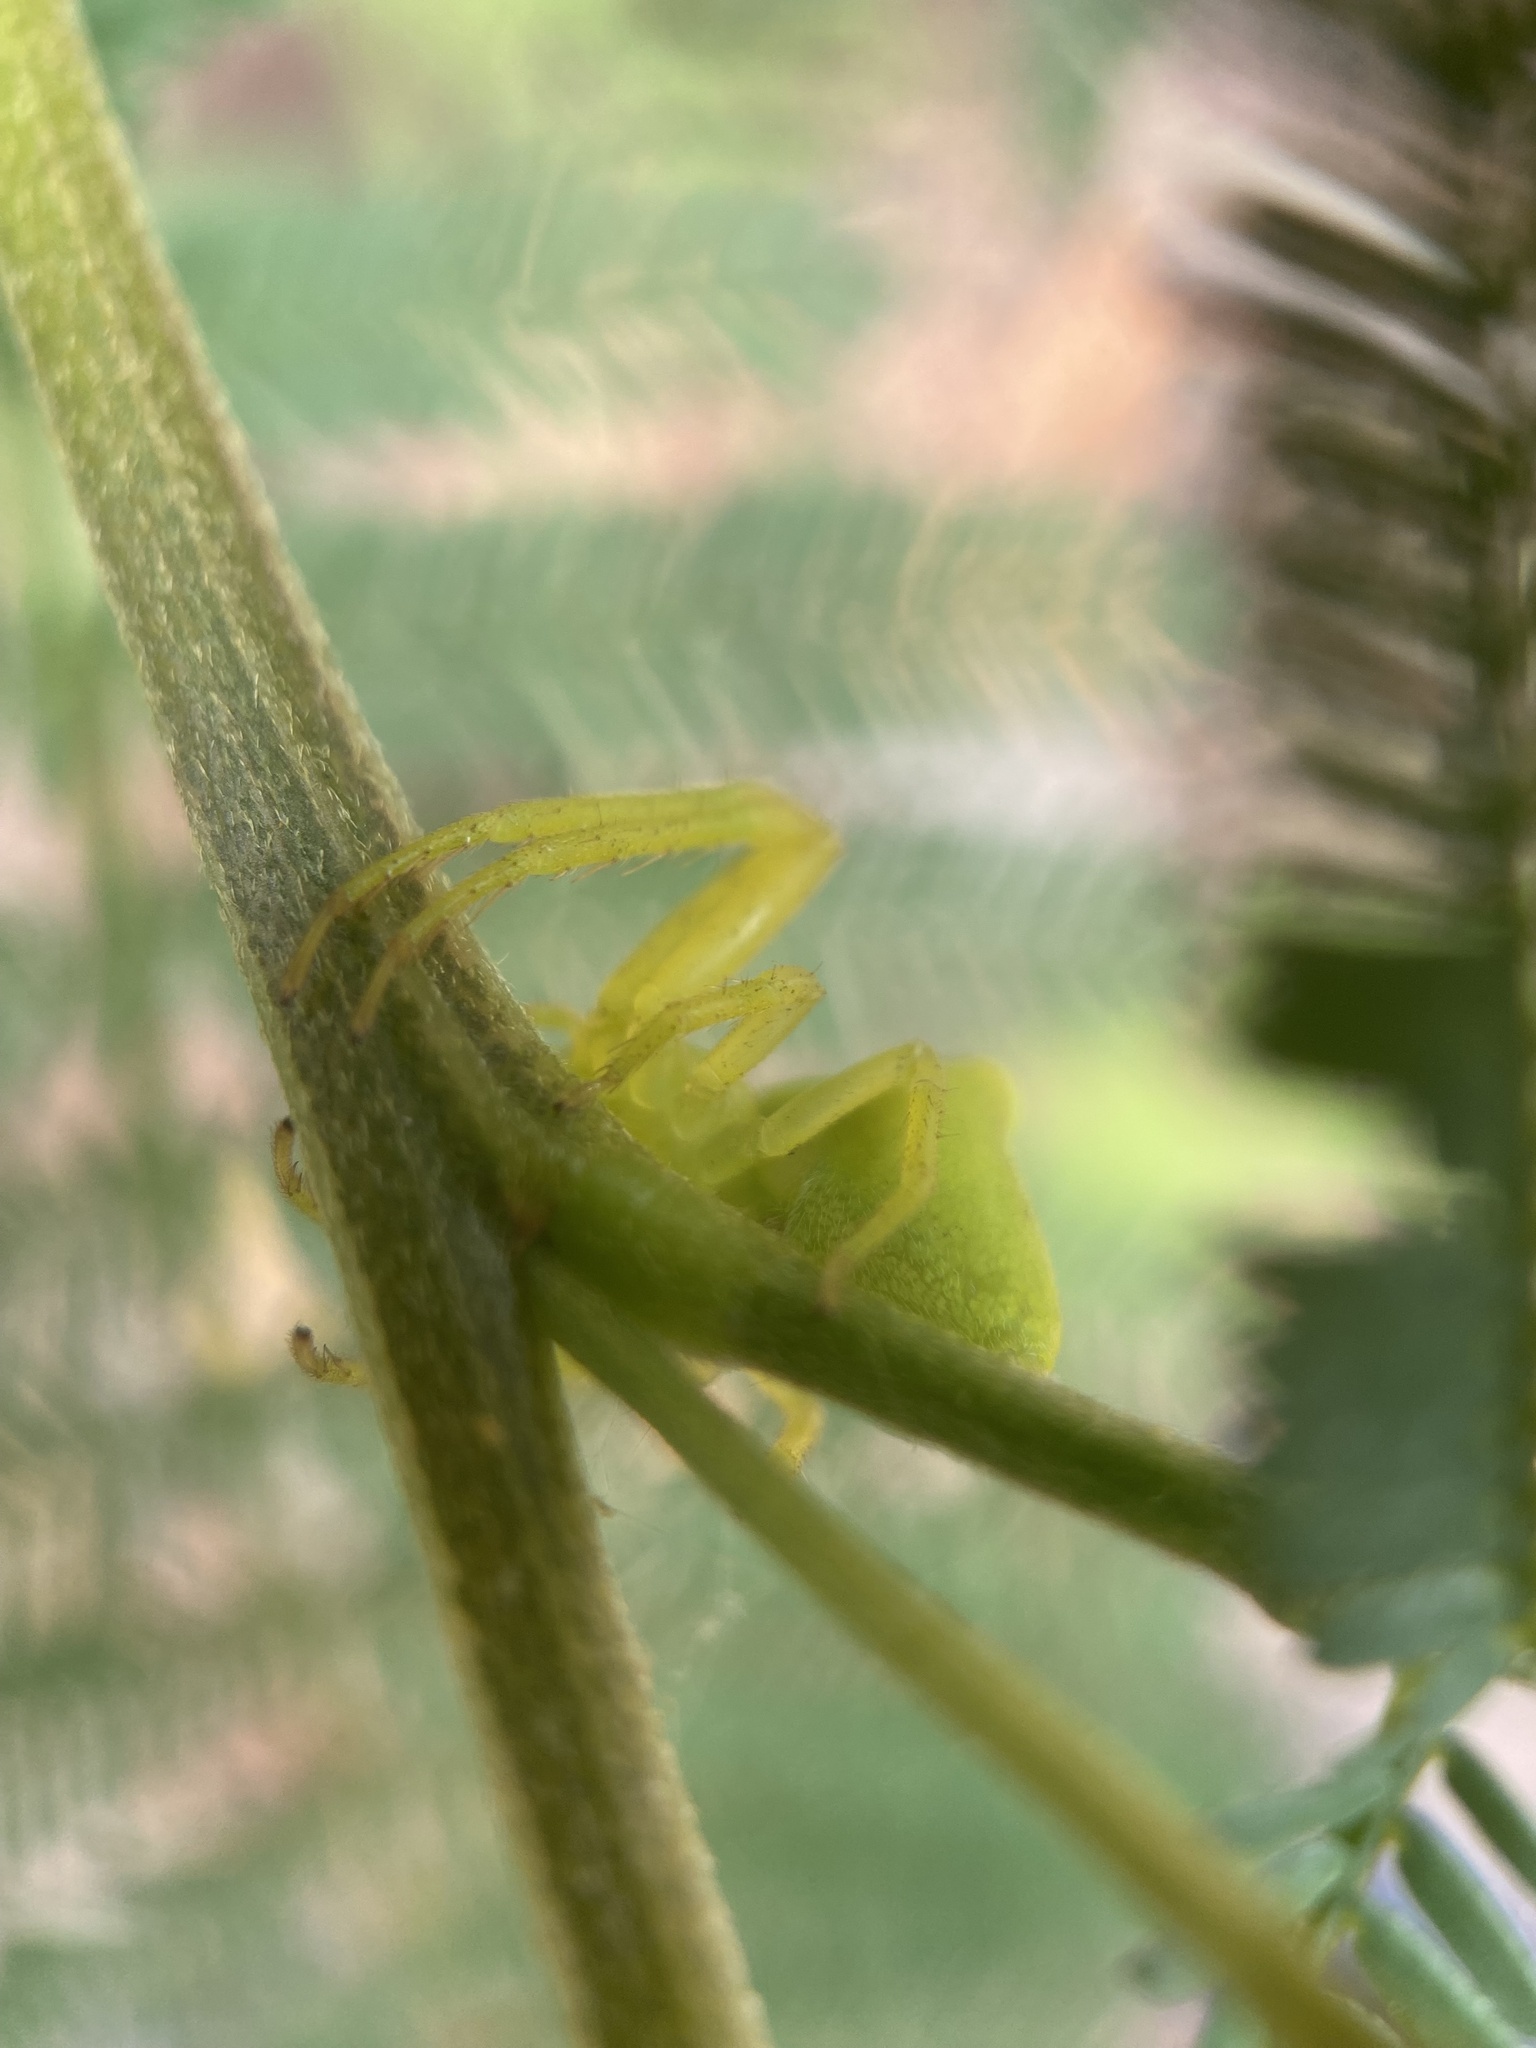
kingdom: Animalia
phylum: Arthropoda
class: Arachnida
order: Araneae
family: Thomisidae
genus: Sidymella
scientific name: Sidymella rubrosignata
